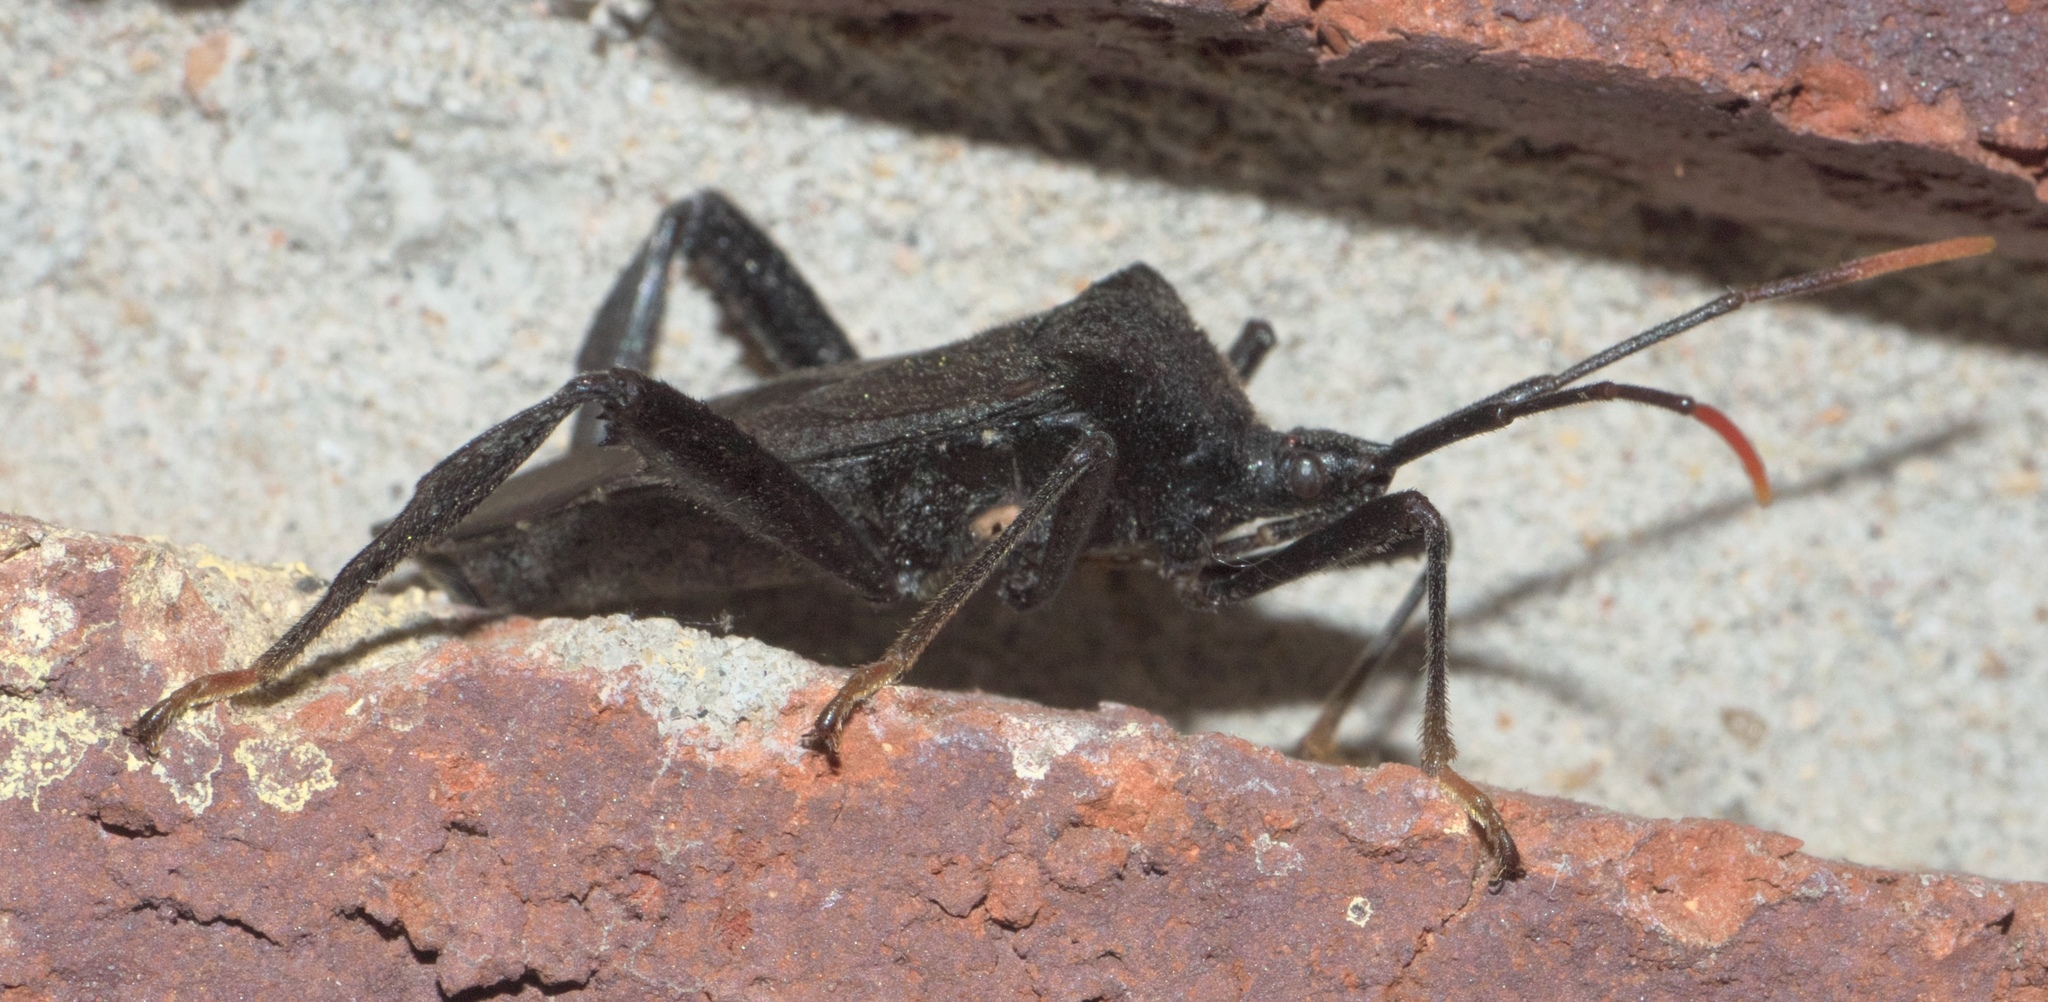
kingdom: Animalia
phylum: Arthropoda
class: Insecta
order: Hemiptera
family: Coreidae
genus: Acanthocephala
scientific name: Acanthocephala terminalis
